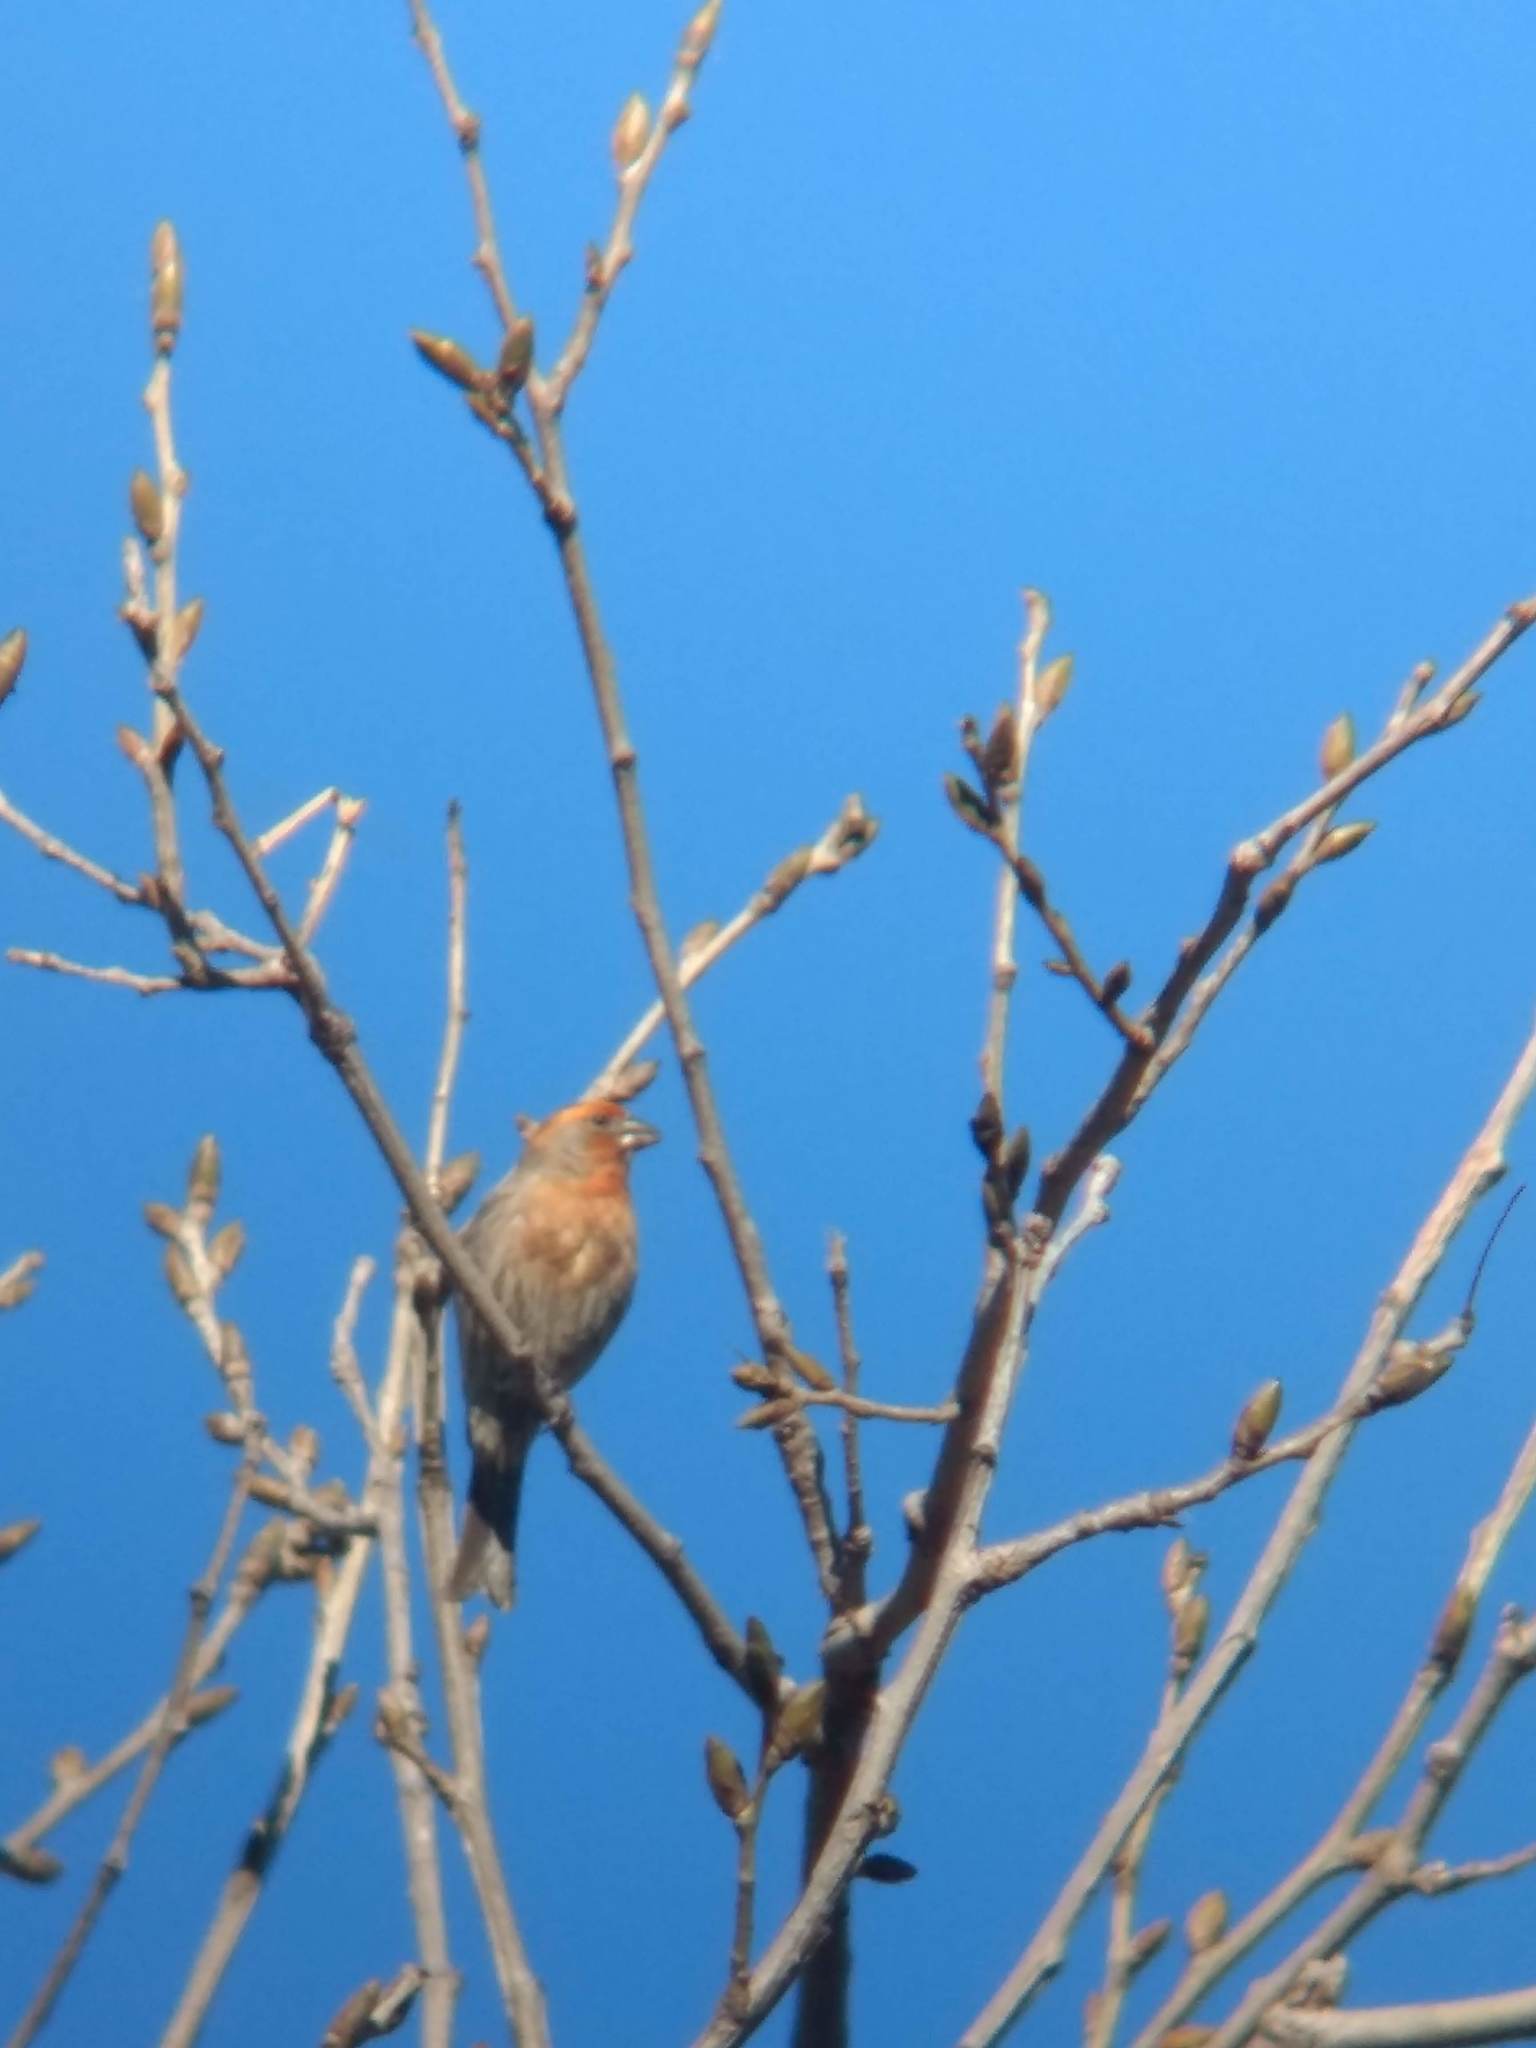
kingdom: Animalia
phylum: Chordata
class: Aves
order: Passeriformes
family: Fringillidae
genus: Haemorhous
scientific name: Haemorhous mexicanus
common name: House finch
